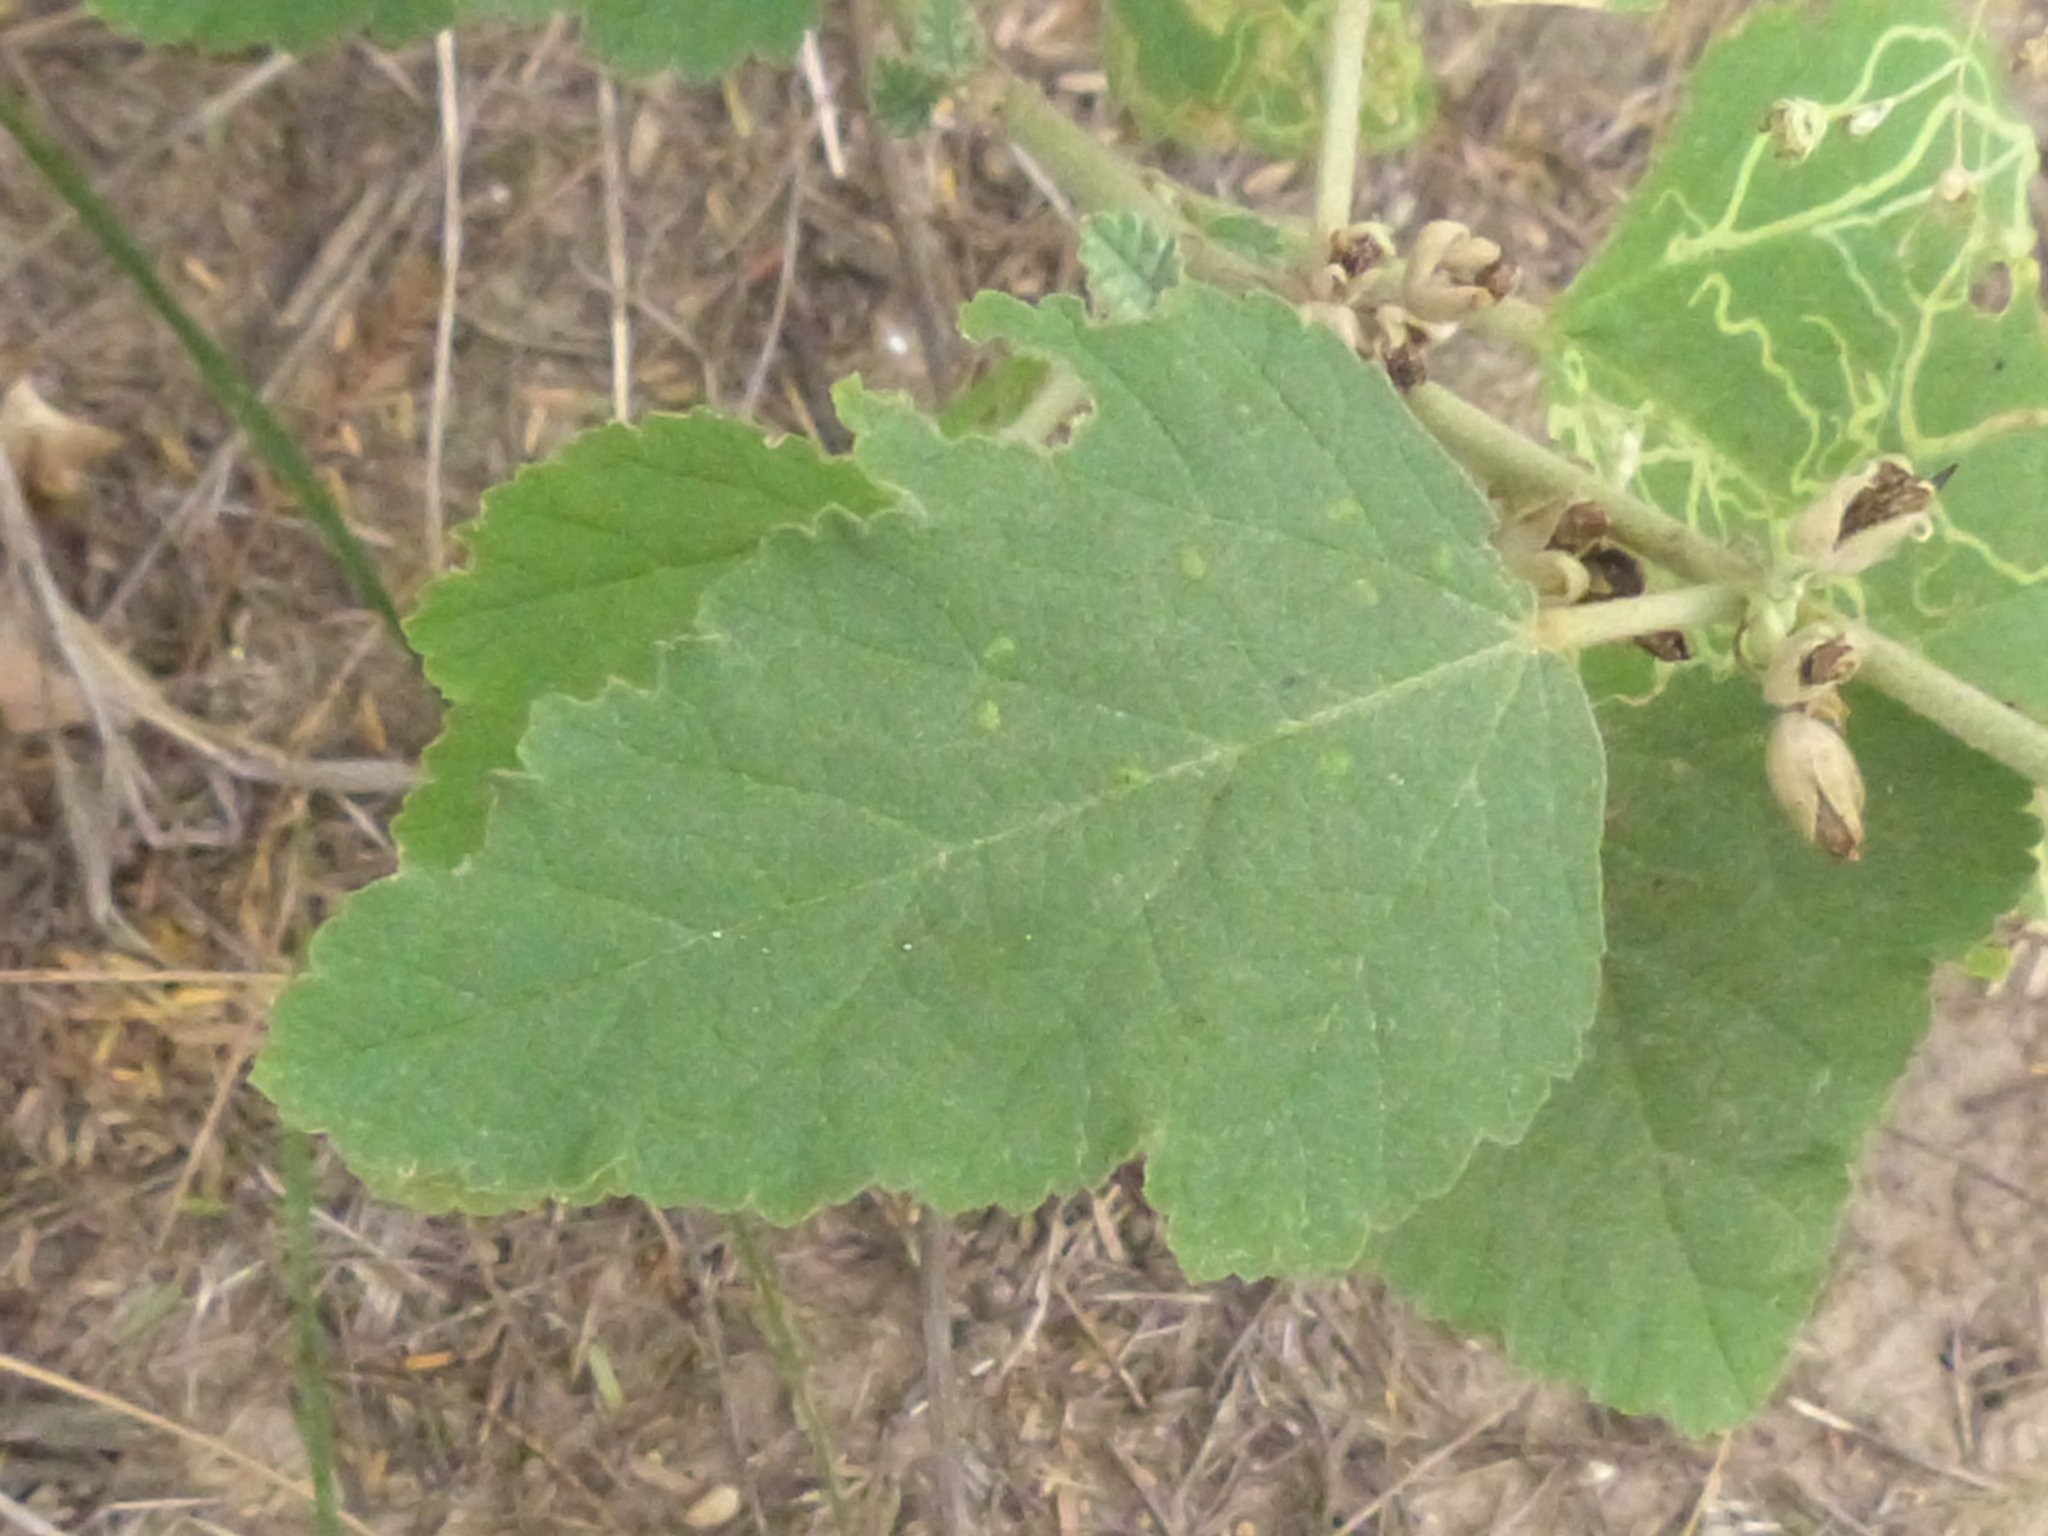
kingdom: Plantae
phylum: Tracheophyta
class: Magnoliopsida
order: Malvales
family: Malvaceae
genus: Sphaeralcea
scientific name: Sphaeralcea bonariensis
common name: Latin globemallow
